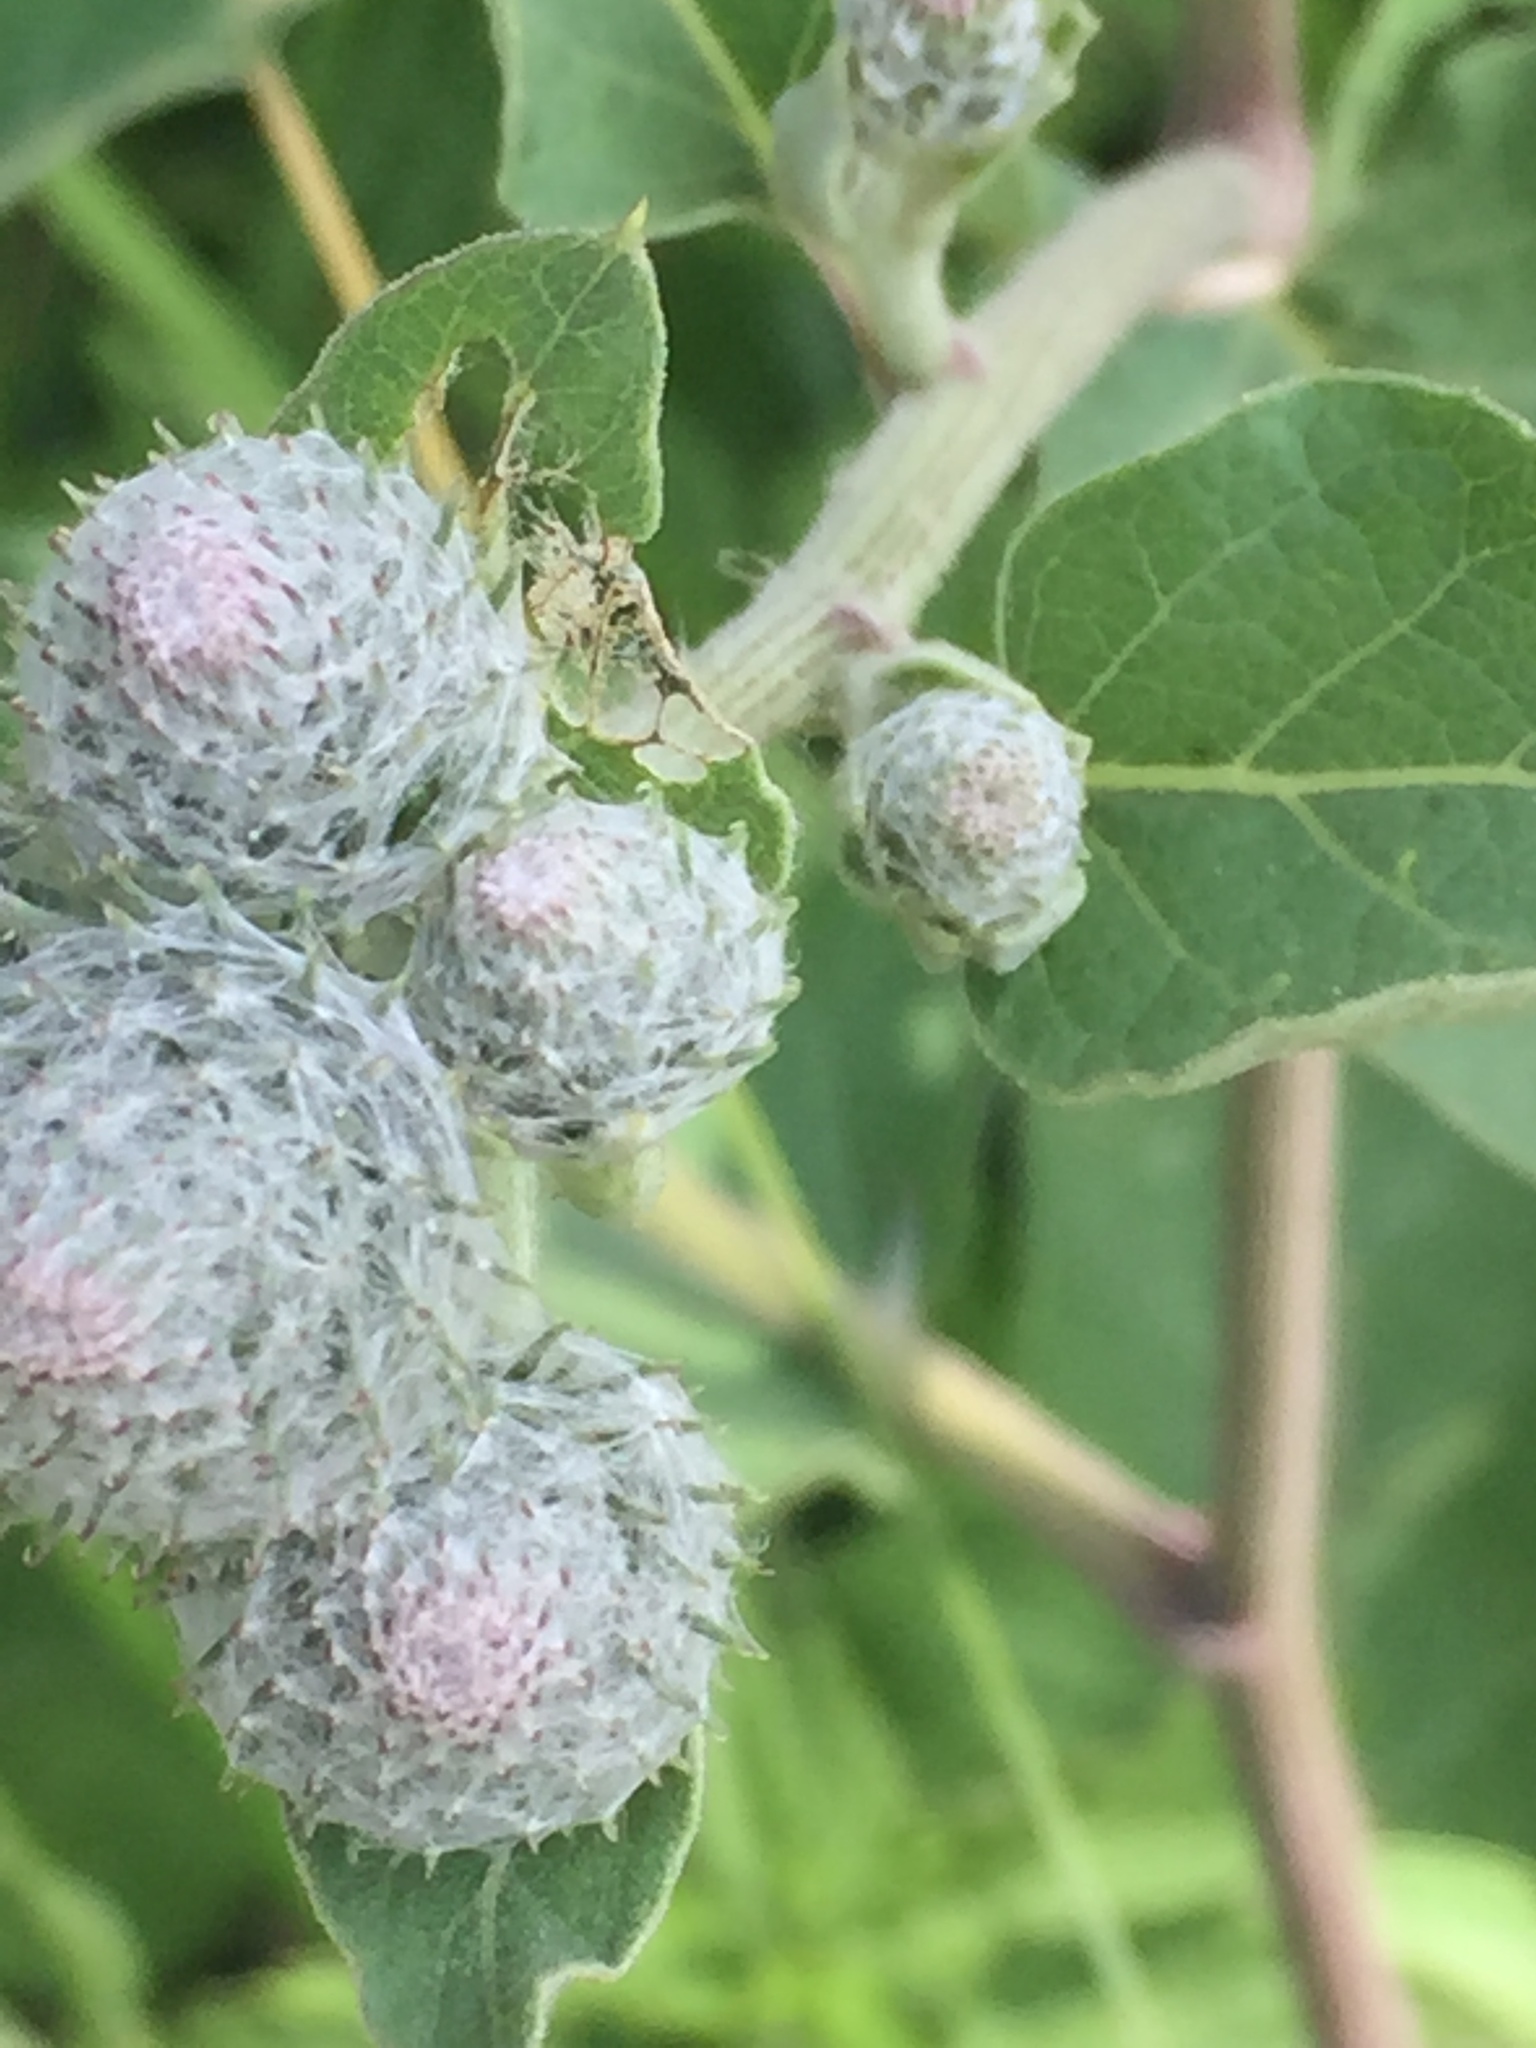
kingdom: Plantae
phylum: Tracheophyta
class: Magnoliopsida
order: Asterales
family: Asteraceae
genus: Arctium
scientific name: Arctium tomentosum
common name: Woolly burdock
